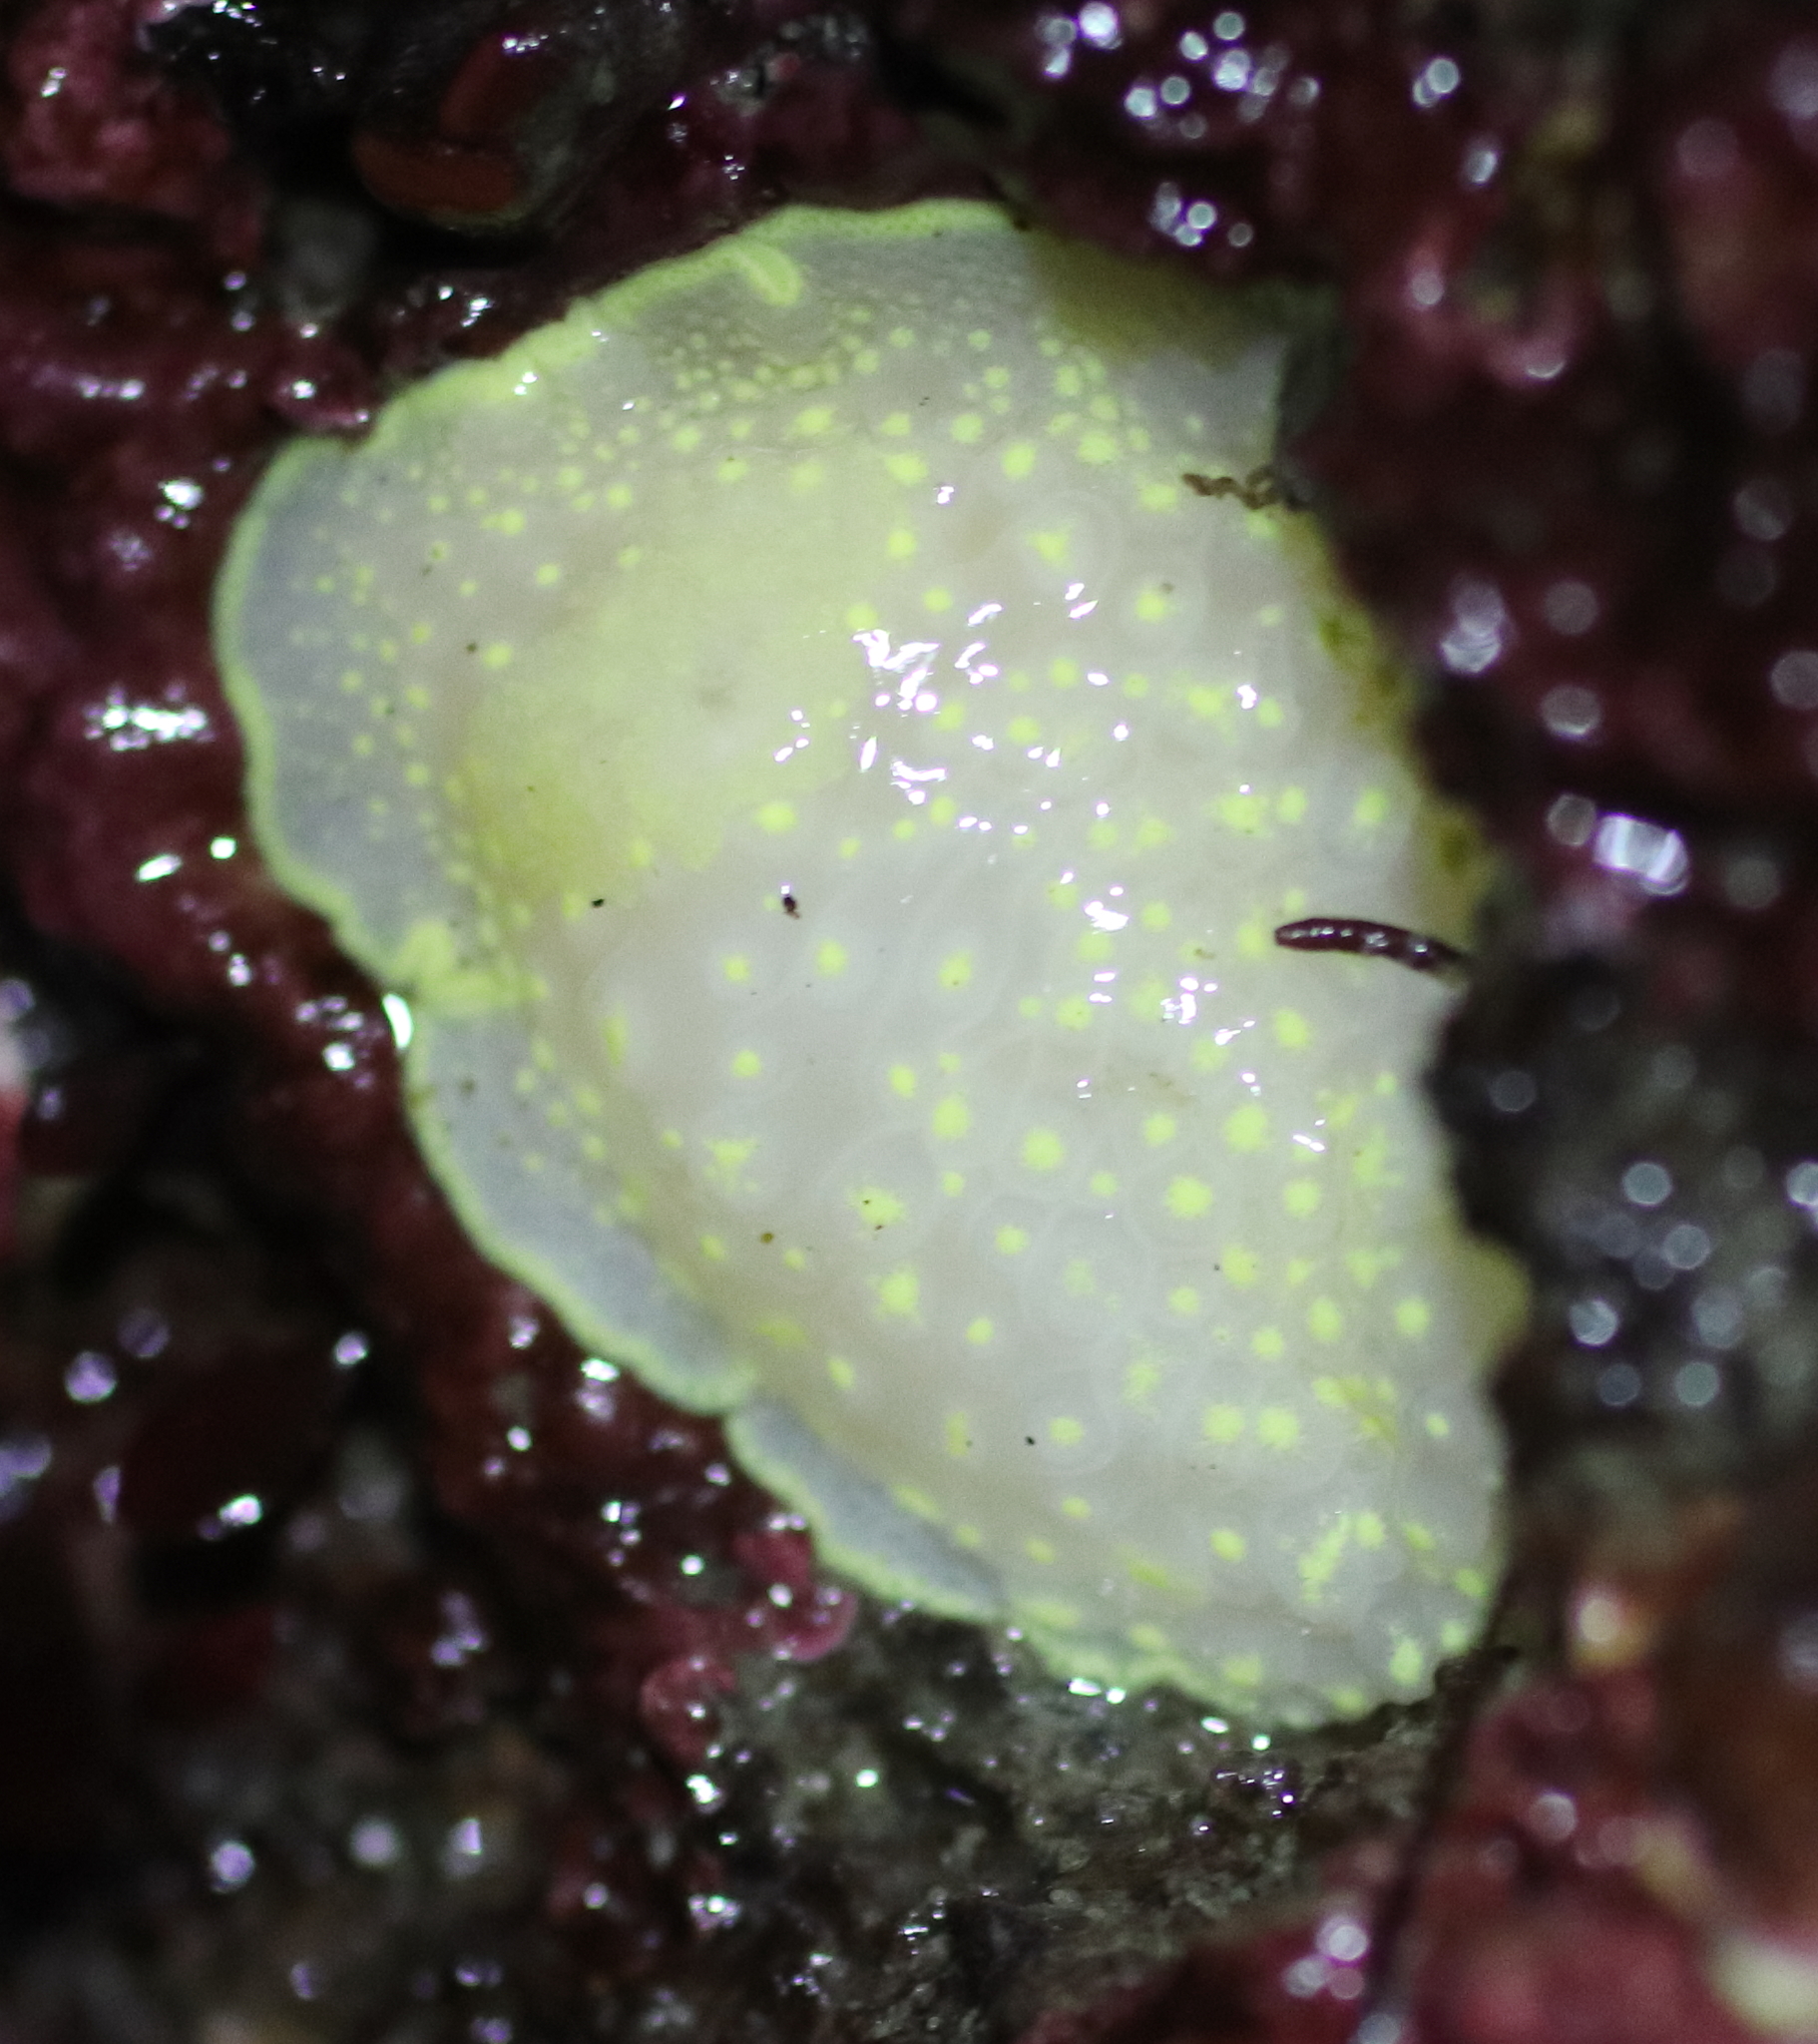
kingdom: Animalia
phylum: Mollusca
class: Gastropoda
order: Nudibranchia
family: Cadlinidae
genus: Cadlina
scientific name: Cadlina luteomarginata
